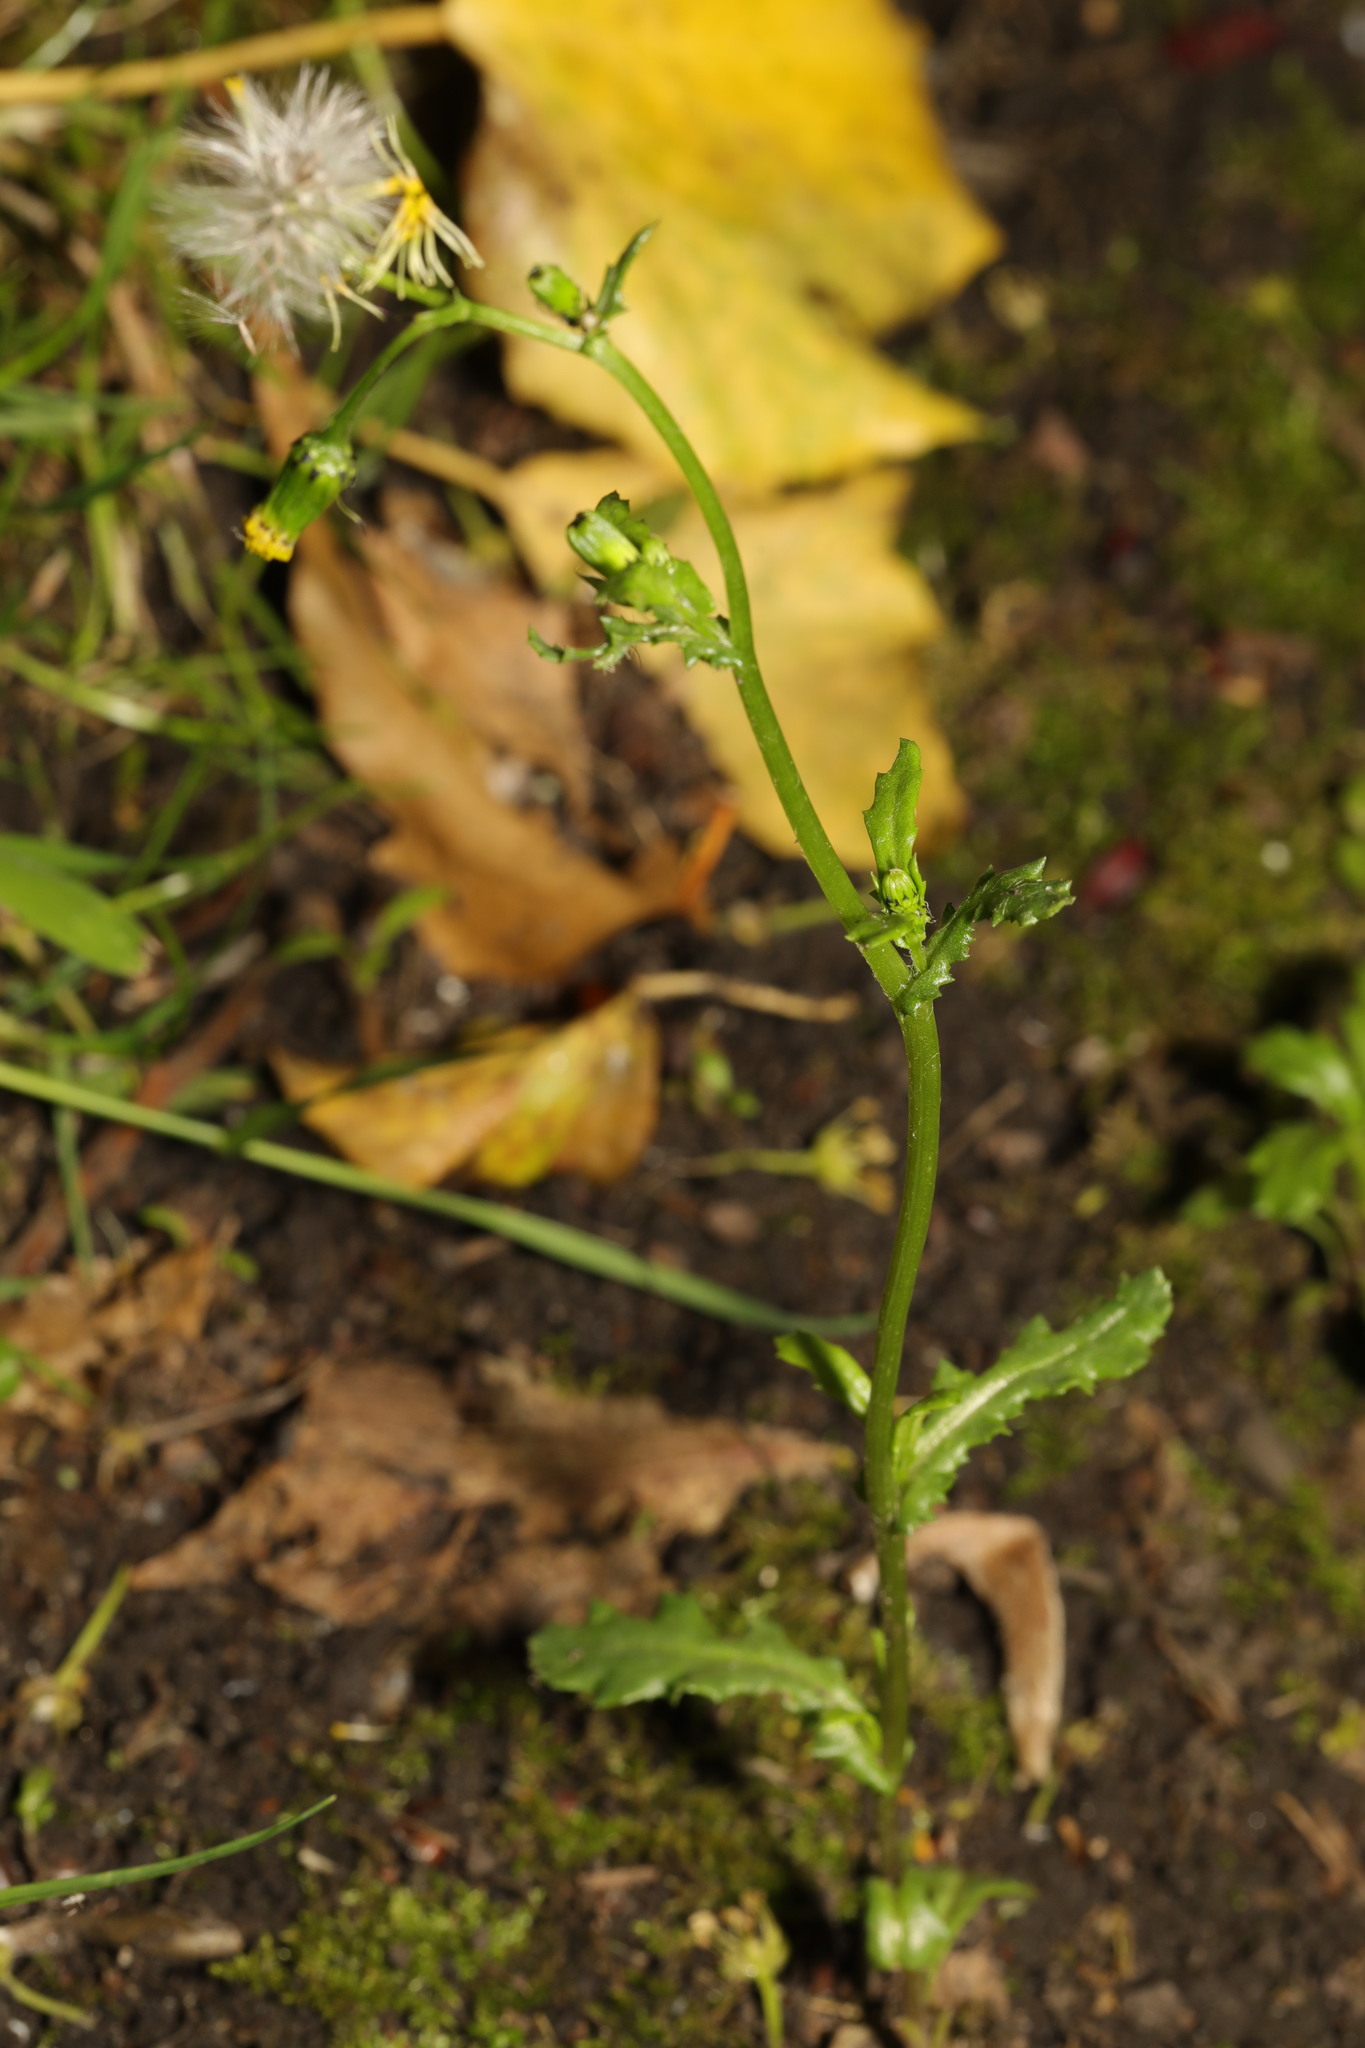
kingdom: Plantae
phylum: Tracheophyta
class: Magnoliopsida
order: Asterales
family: Asteraceae
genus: Senecio
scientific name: Senecio vulgaris
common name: Old-man-in-the-spring
